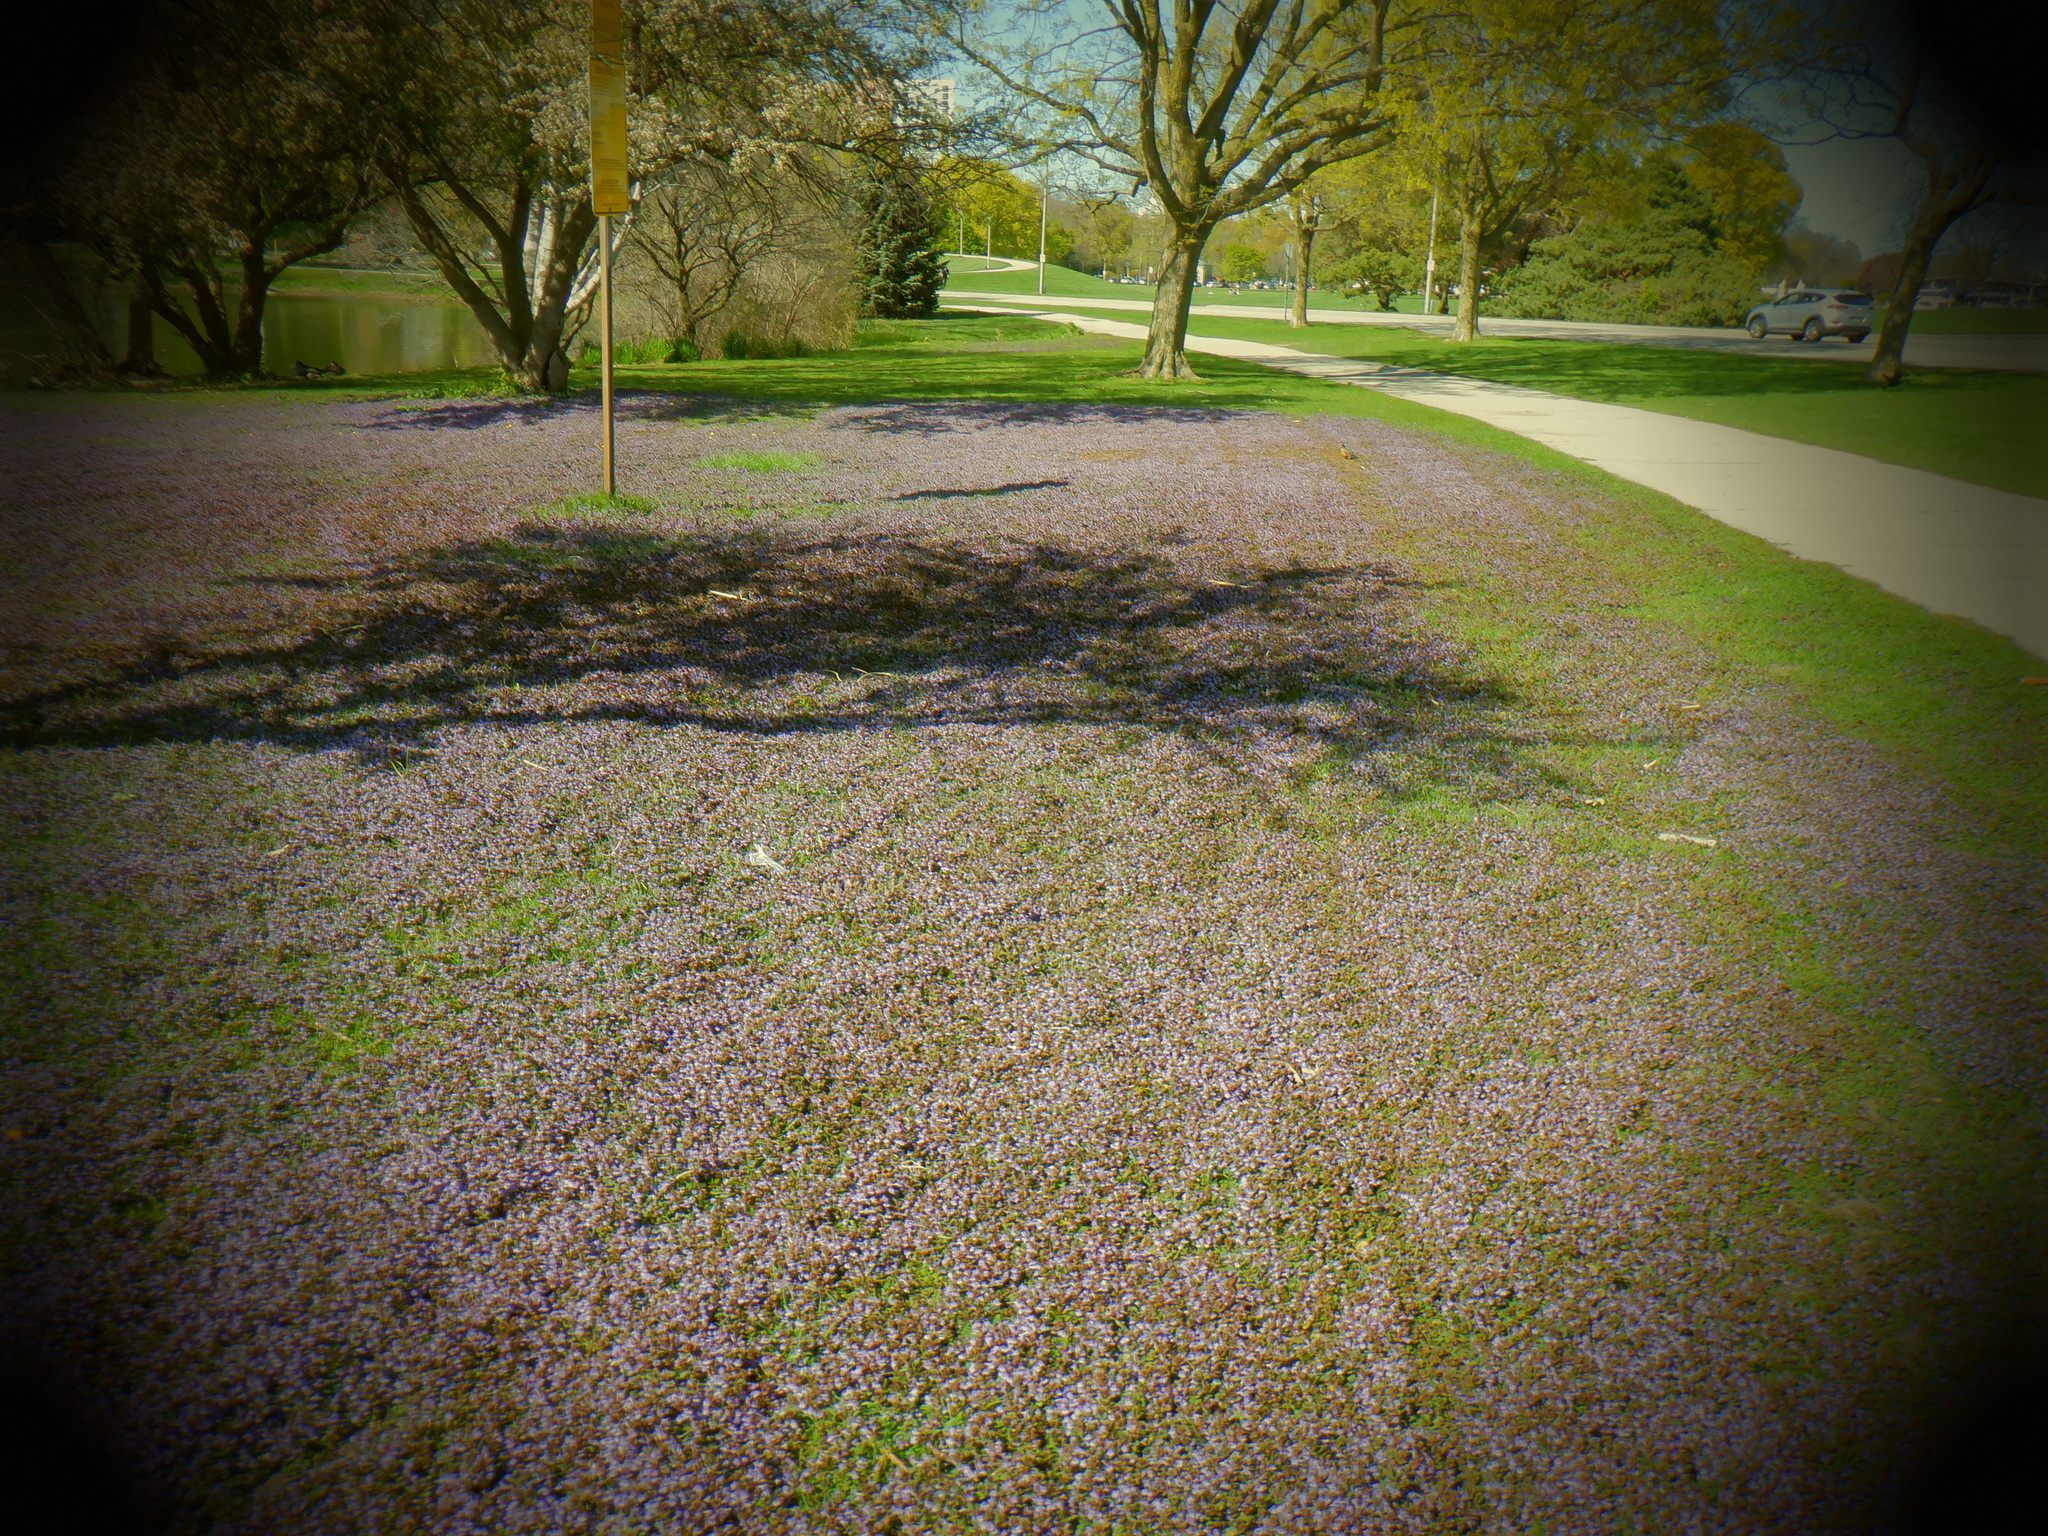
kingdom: Plantae
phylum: Tracheophyta
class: Magnoliopsida
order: Lamiales
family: Lamiaceae
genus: Glechoma
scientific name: Glechoma hederacea
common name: Ground ivy
